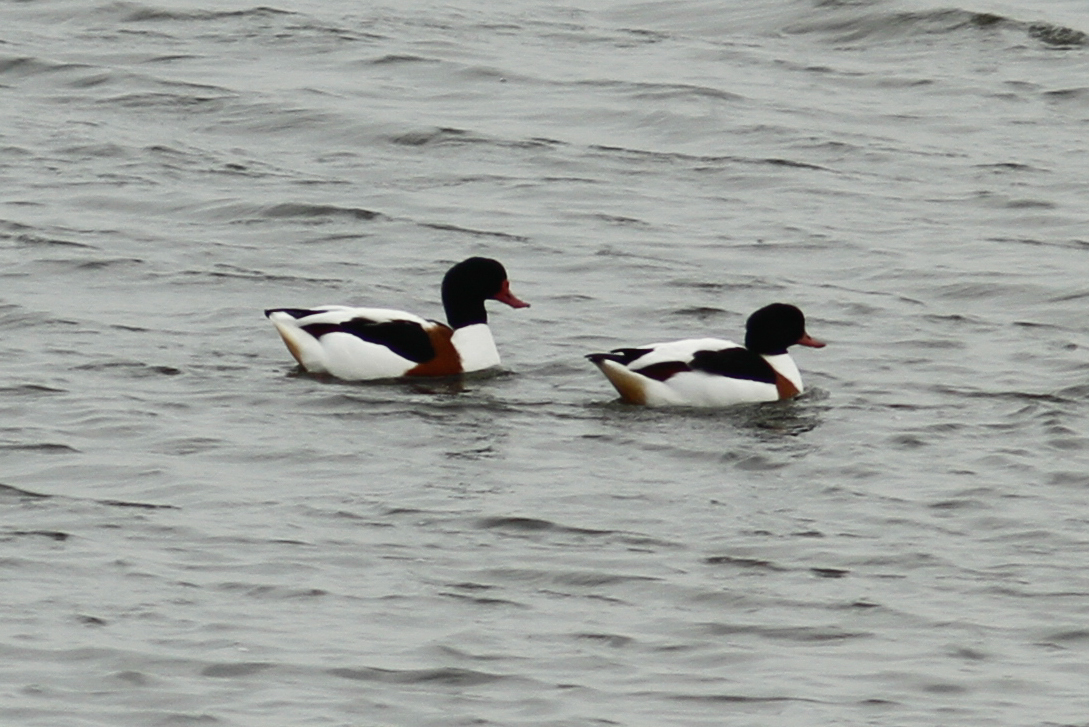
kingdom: Animalia
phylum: Chordata
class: Aves
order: Anseriformes
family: Anatidae
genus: Tadorna
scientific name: Tadorna tadorna
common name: Common shelduck
